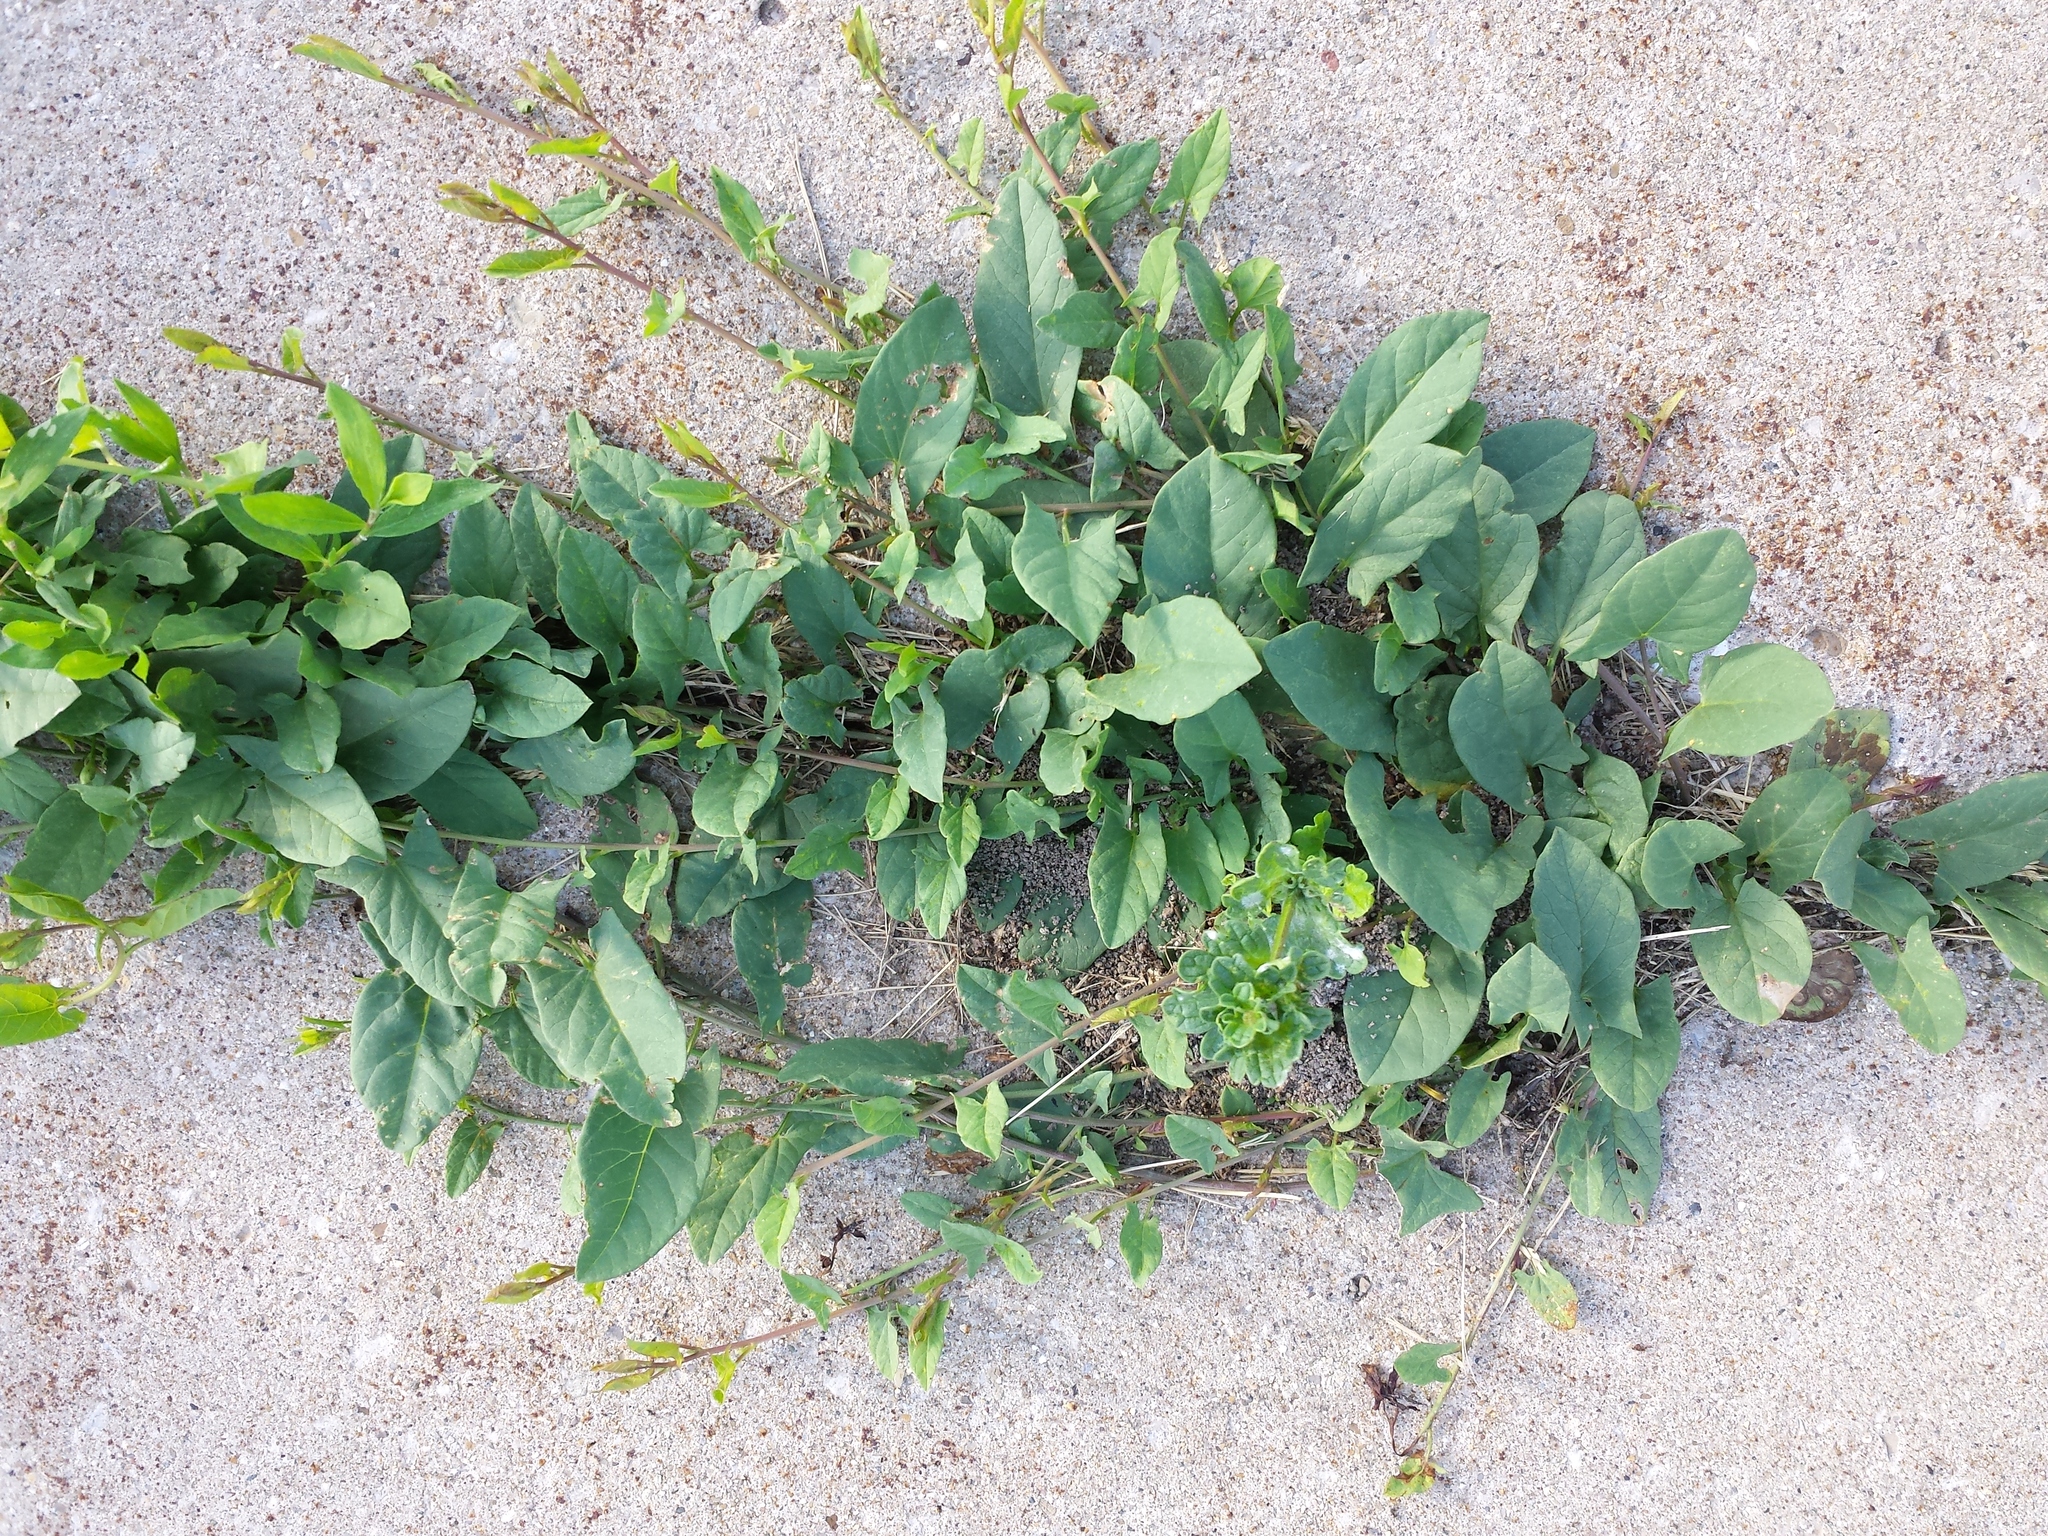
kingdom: Plantae
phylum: Tracheophyta
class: Magnoliopsida
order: Solanales
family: Convolvulaceae
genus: Convolvulus
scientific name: Convolvulus arvensis
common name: Field bindweed
